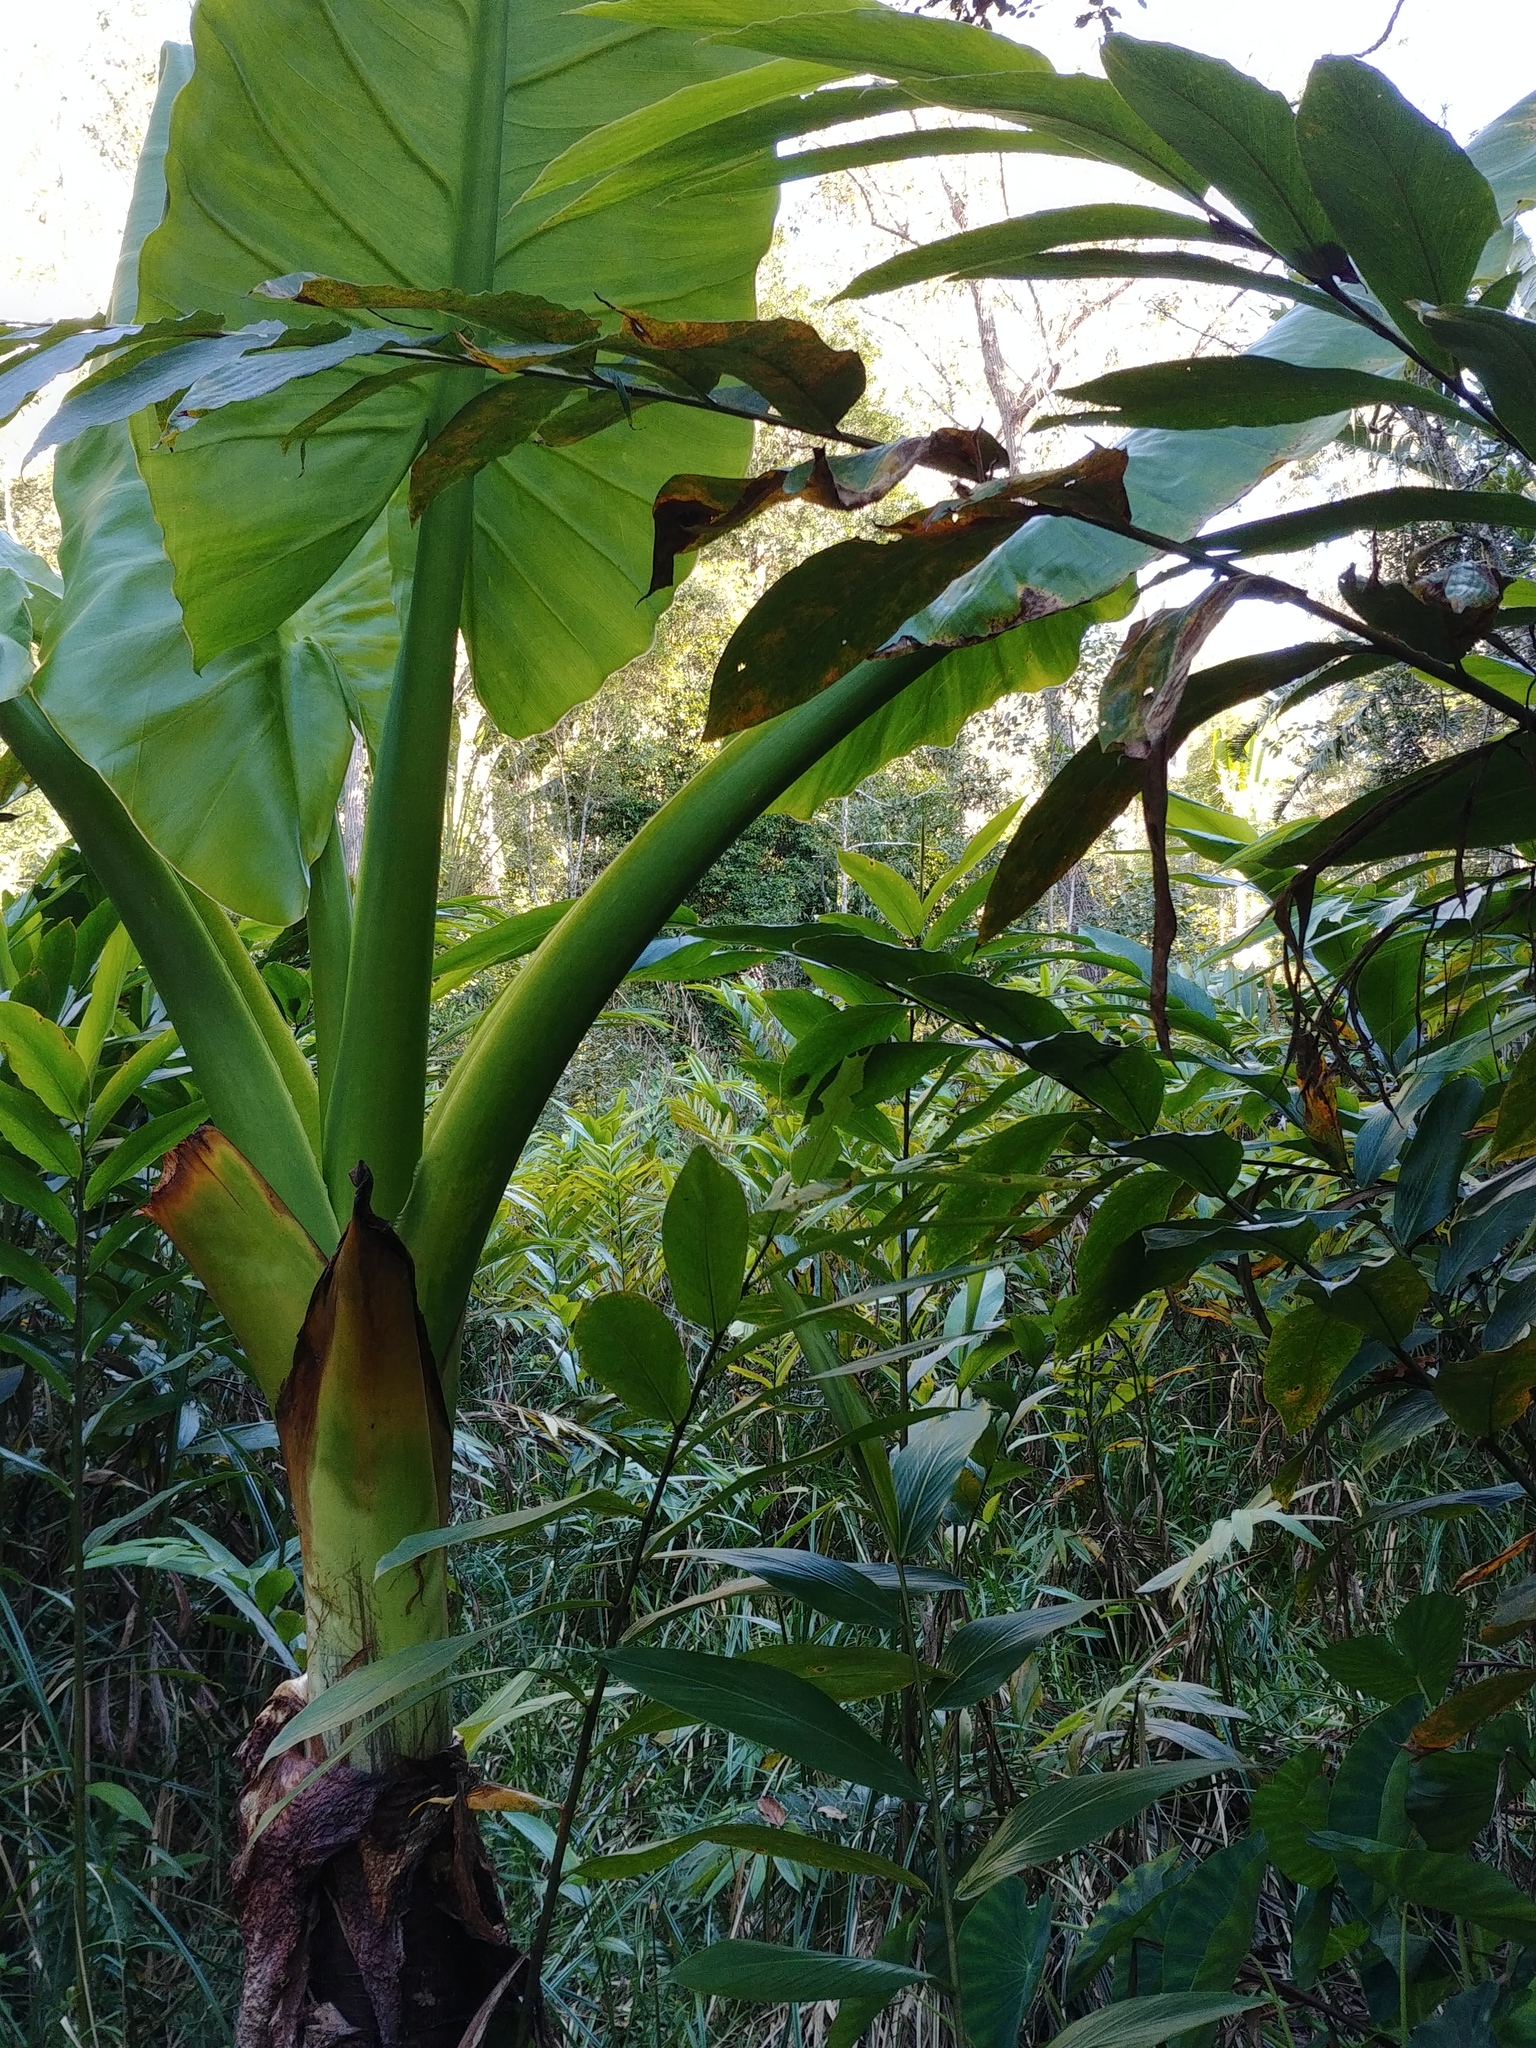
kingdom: Plantae
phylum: Tracheophyta
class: Liliopsida
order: Alismatales
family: Araceae
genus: Typhonodorum
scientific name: Typhonodorum lindleyanum
